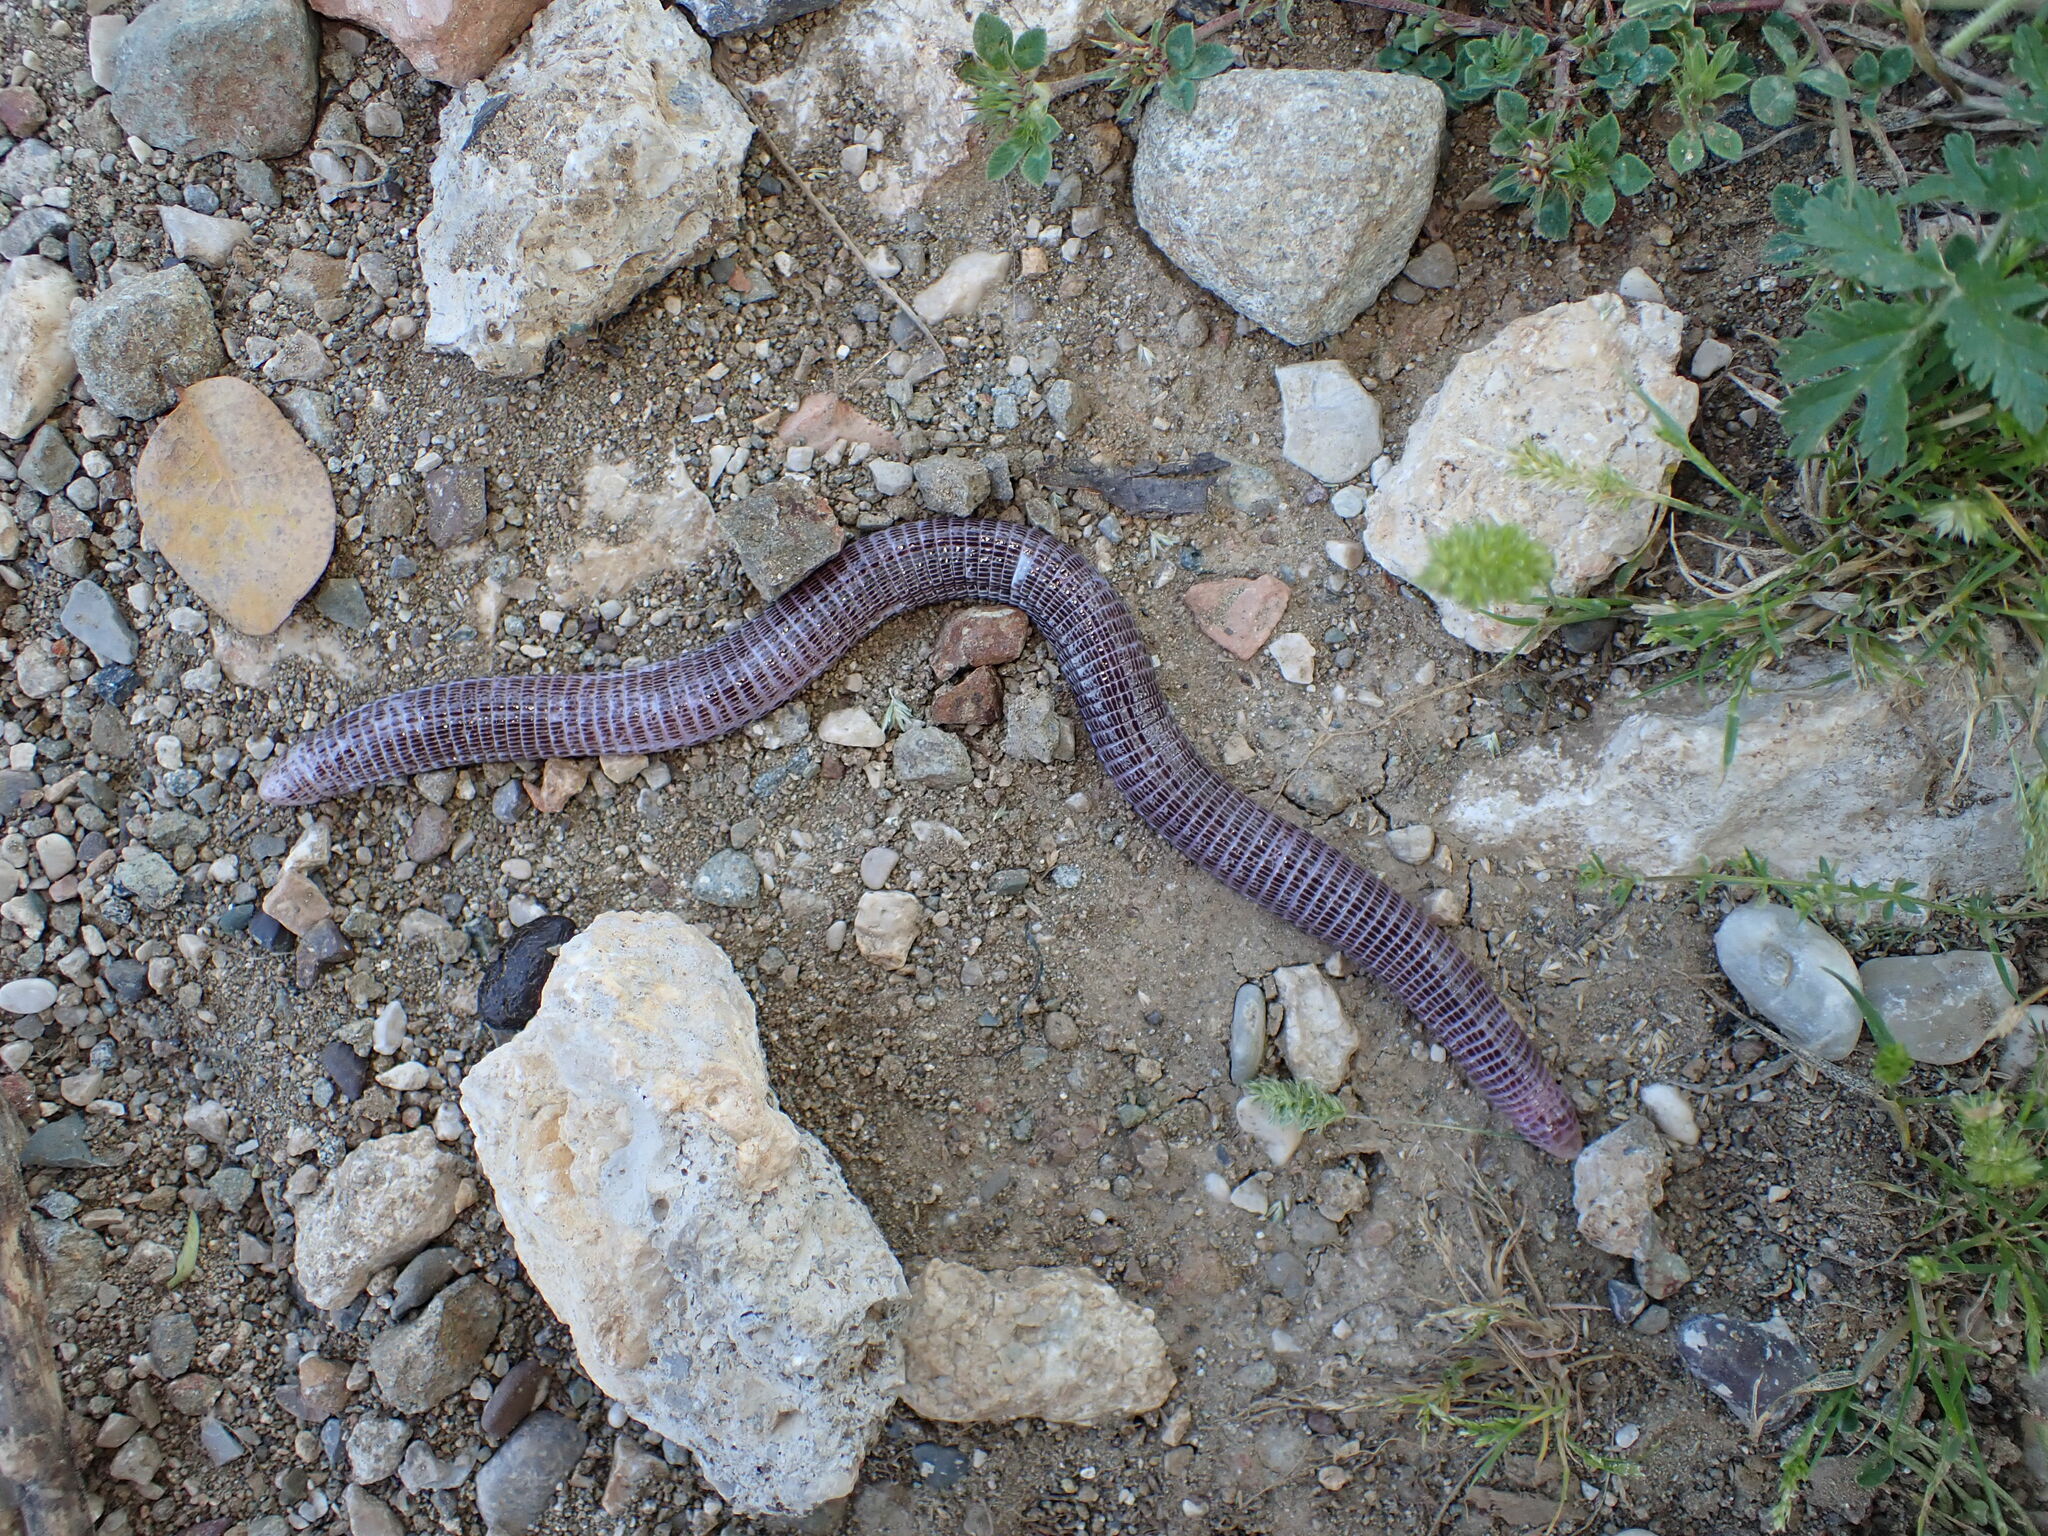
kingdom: Animalia
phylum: Chordata
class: Squamata
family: Blanidae
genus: Blanus
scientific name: Blanus aporus
